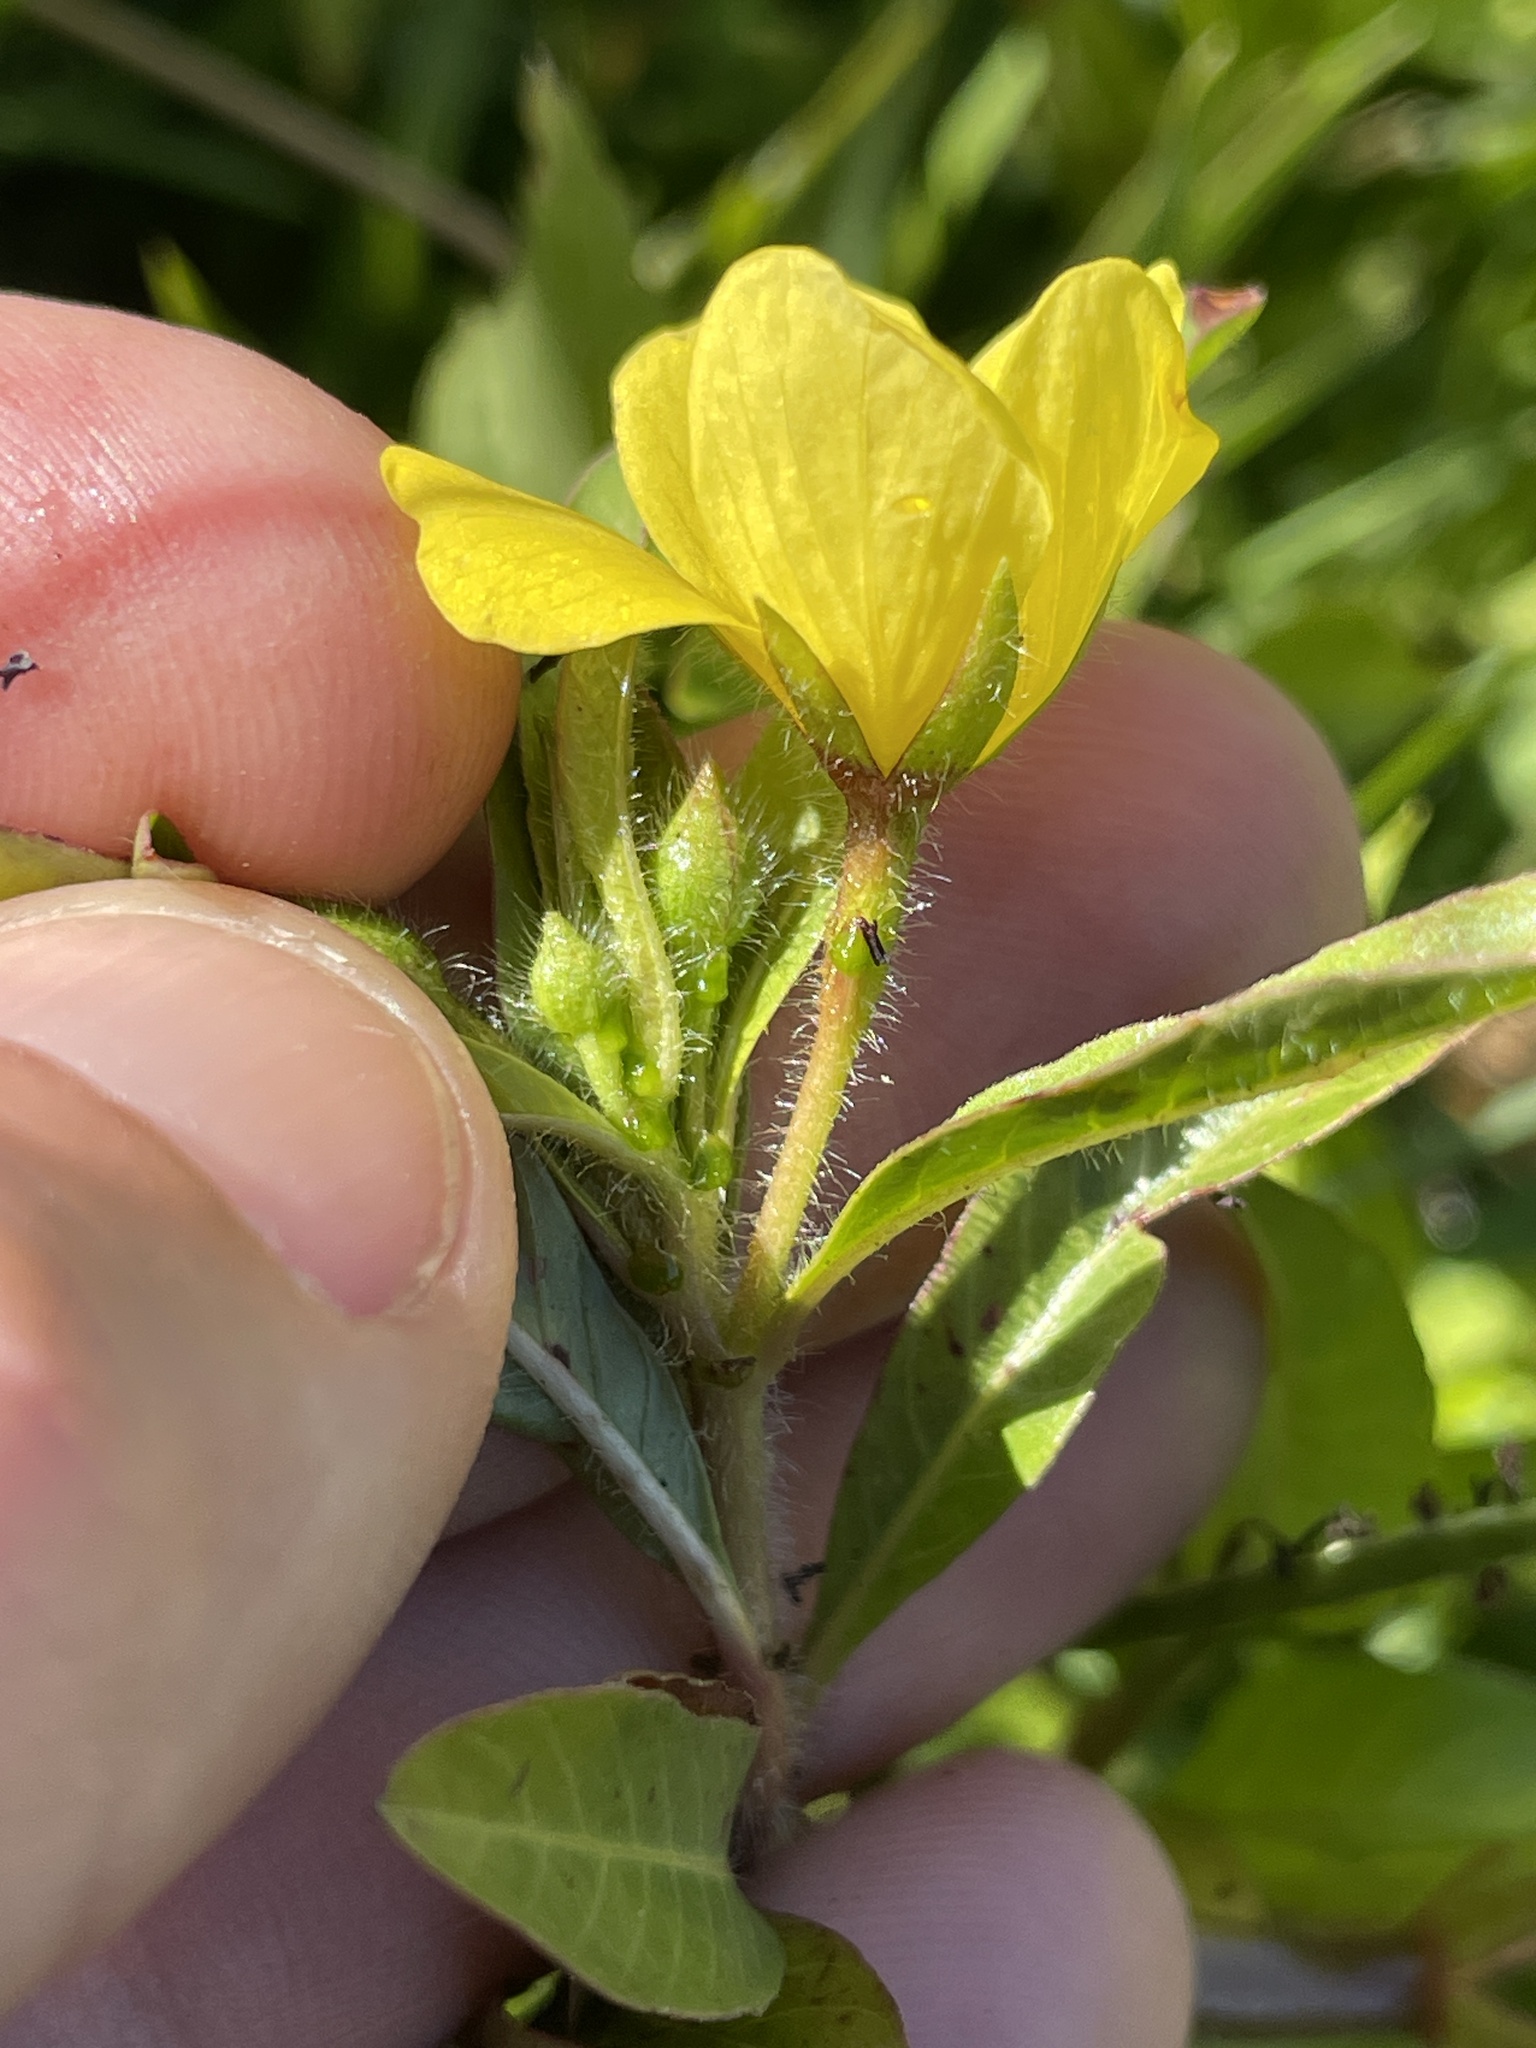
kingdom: Plantae
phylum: Tracheophyta
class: Magnoliopsida
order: Myrtales
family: Onagraceae
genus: Ludwigia
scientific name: Ludwigia peploides
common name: Floating primrose-willow
